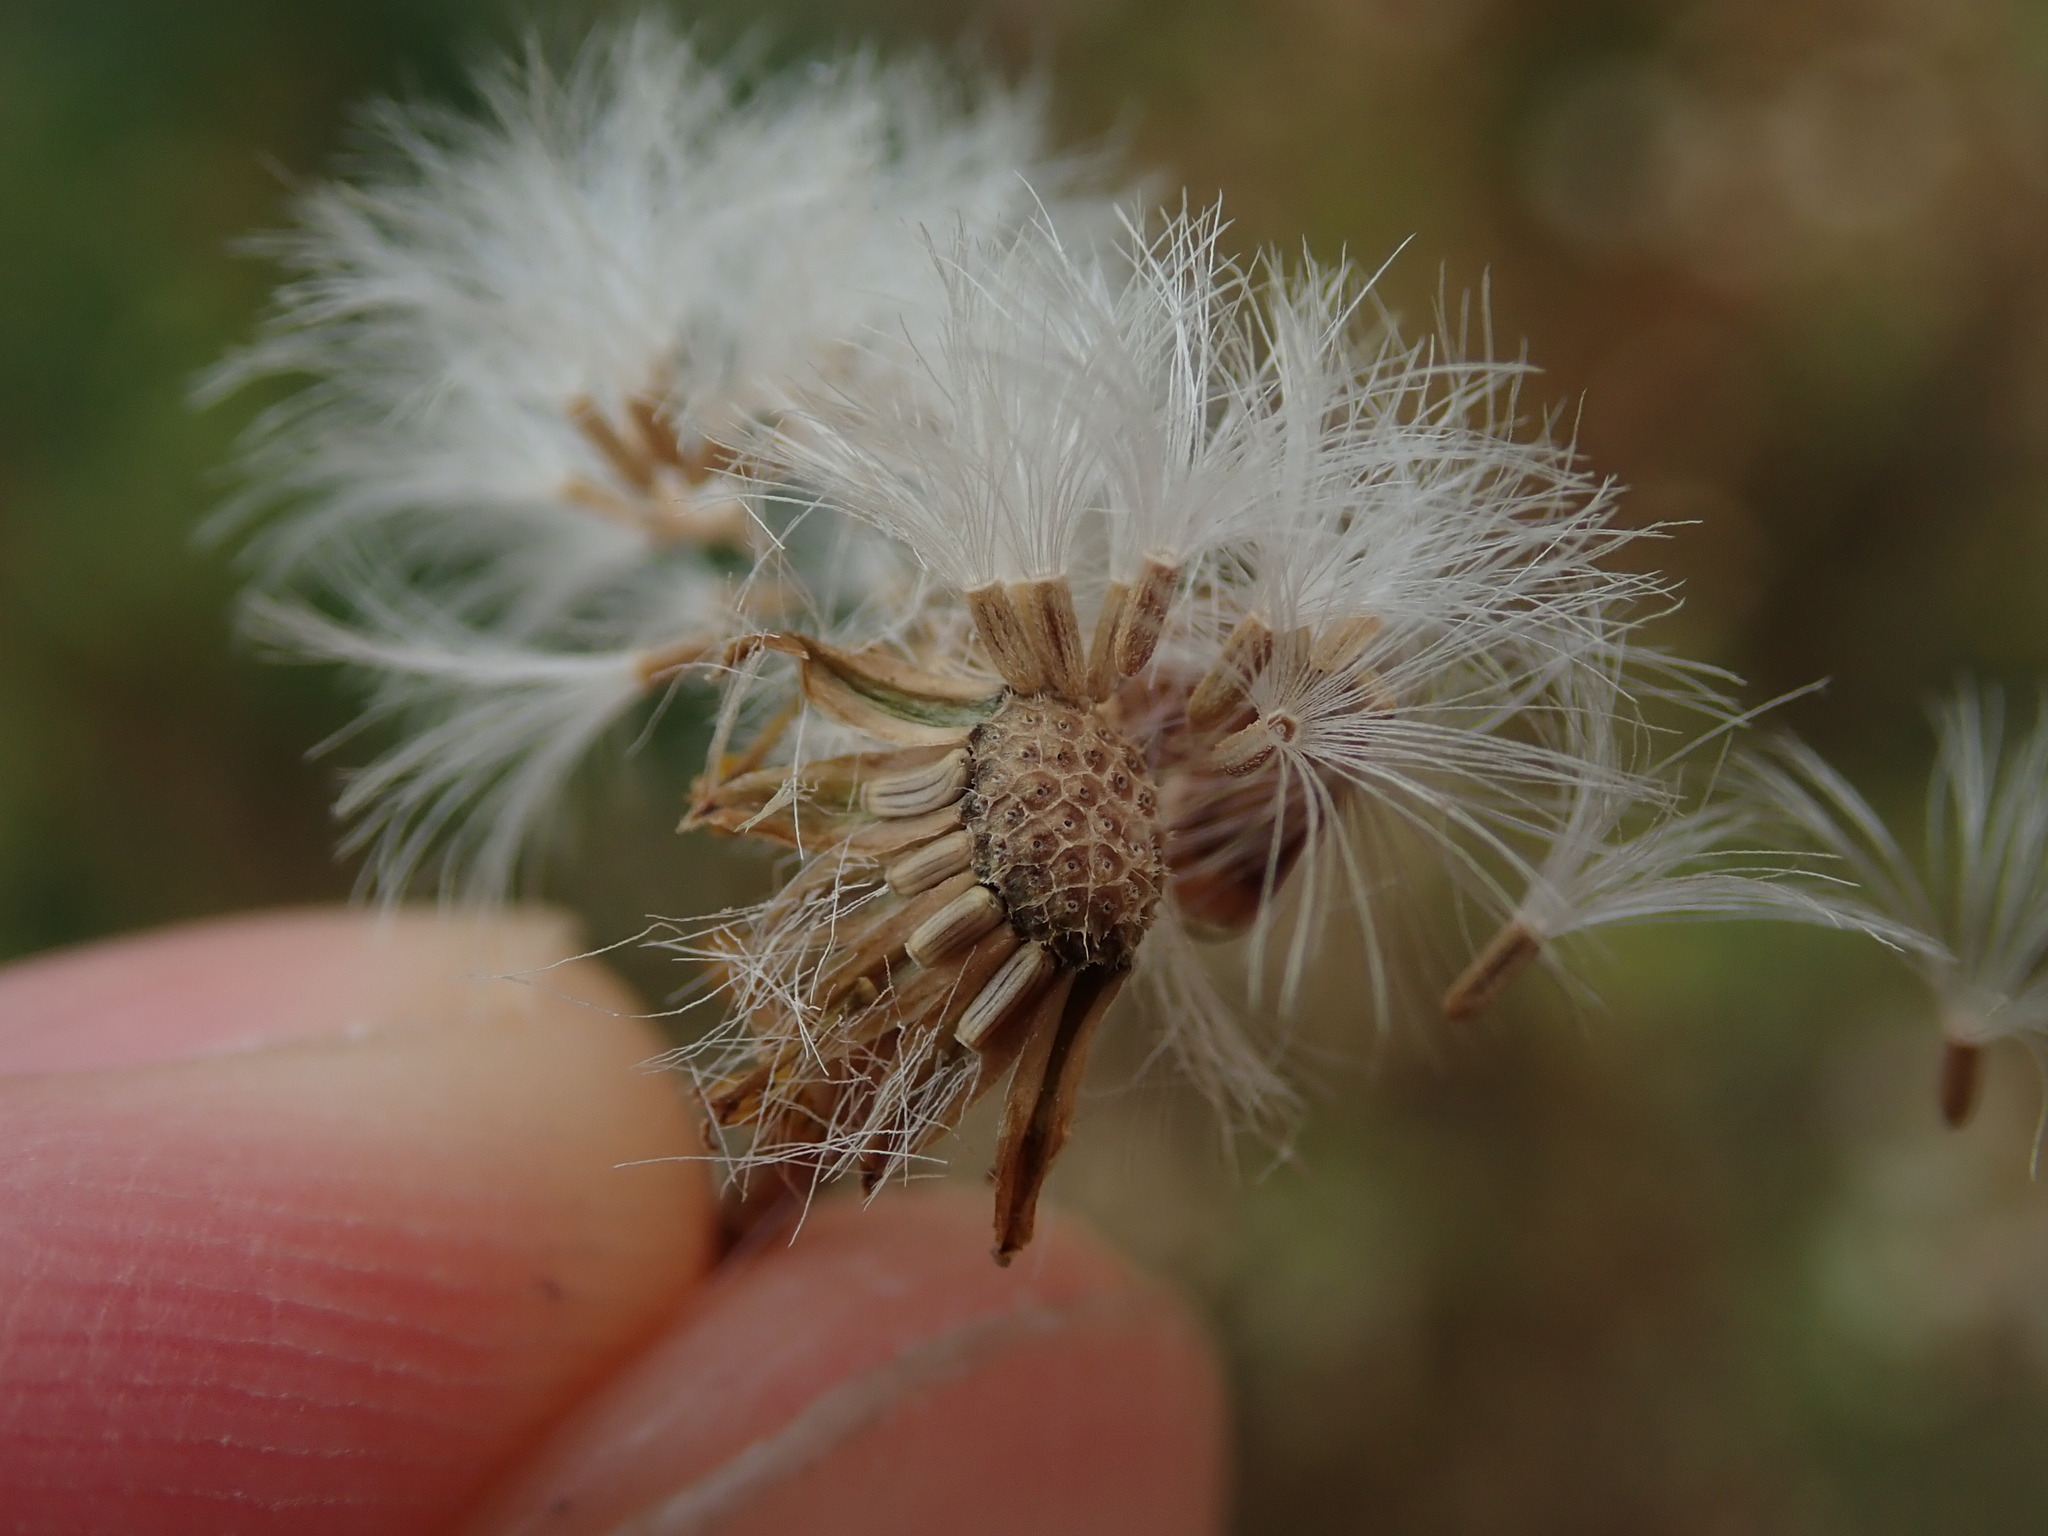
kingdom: Plantae
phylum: Tracheophyta
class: Magnoliopsida
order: Asterales
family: Asteraceae
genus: Jacobaea
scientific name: Jacobaea vulgaris
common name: Stinking willie
